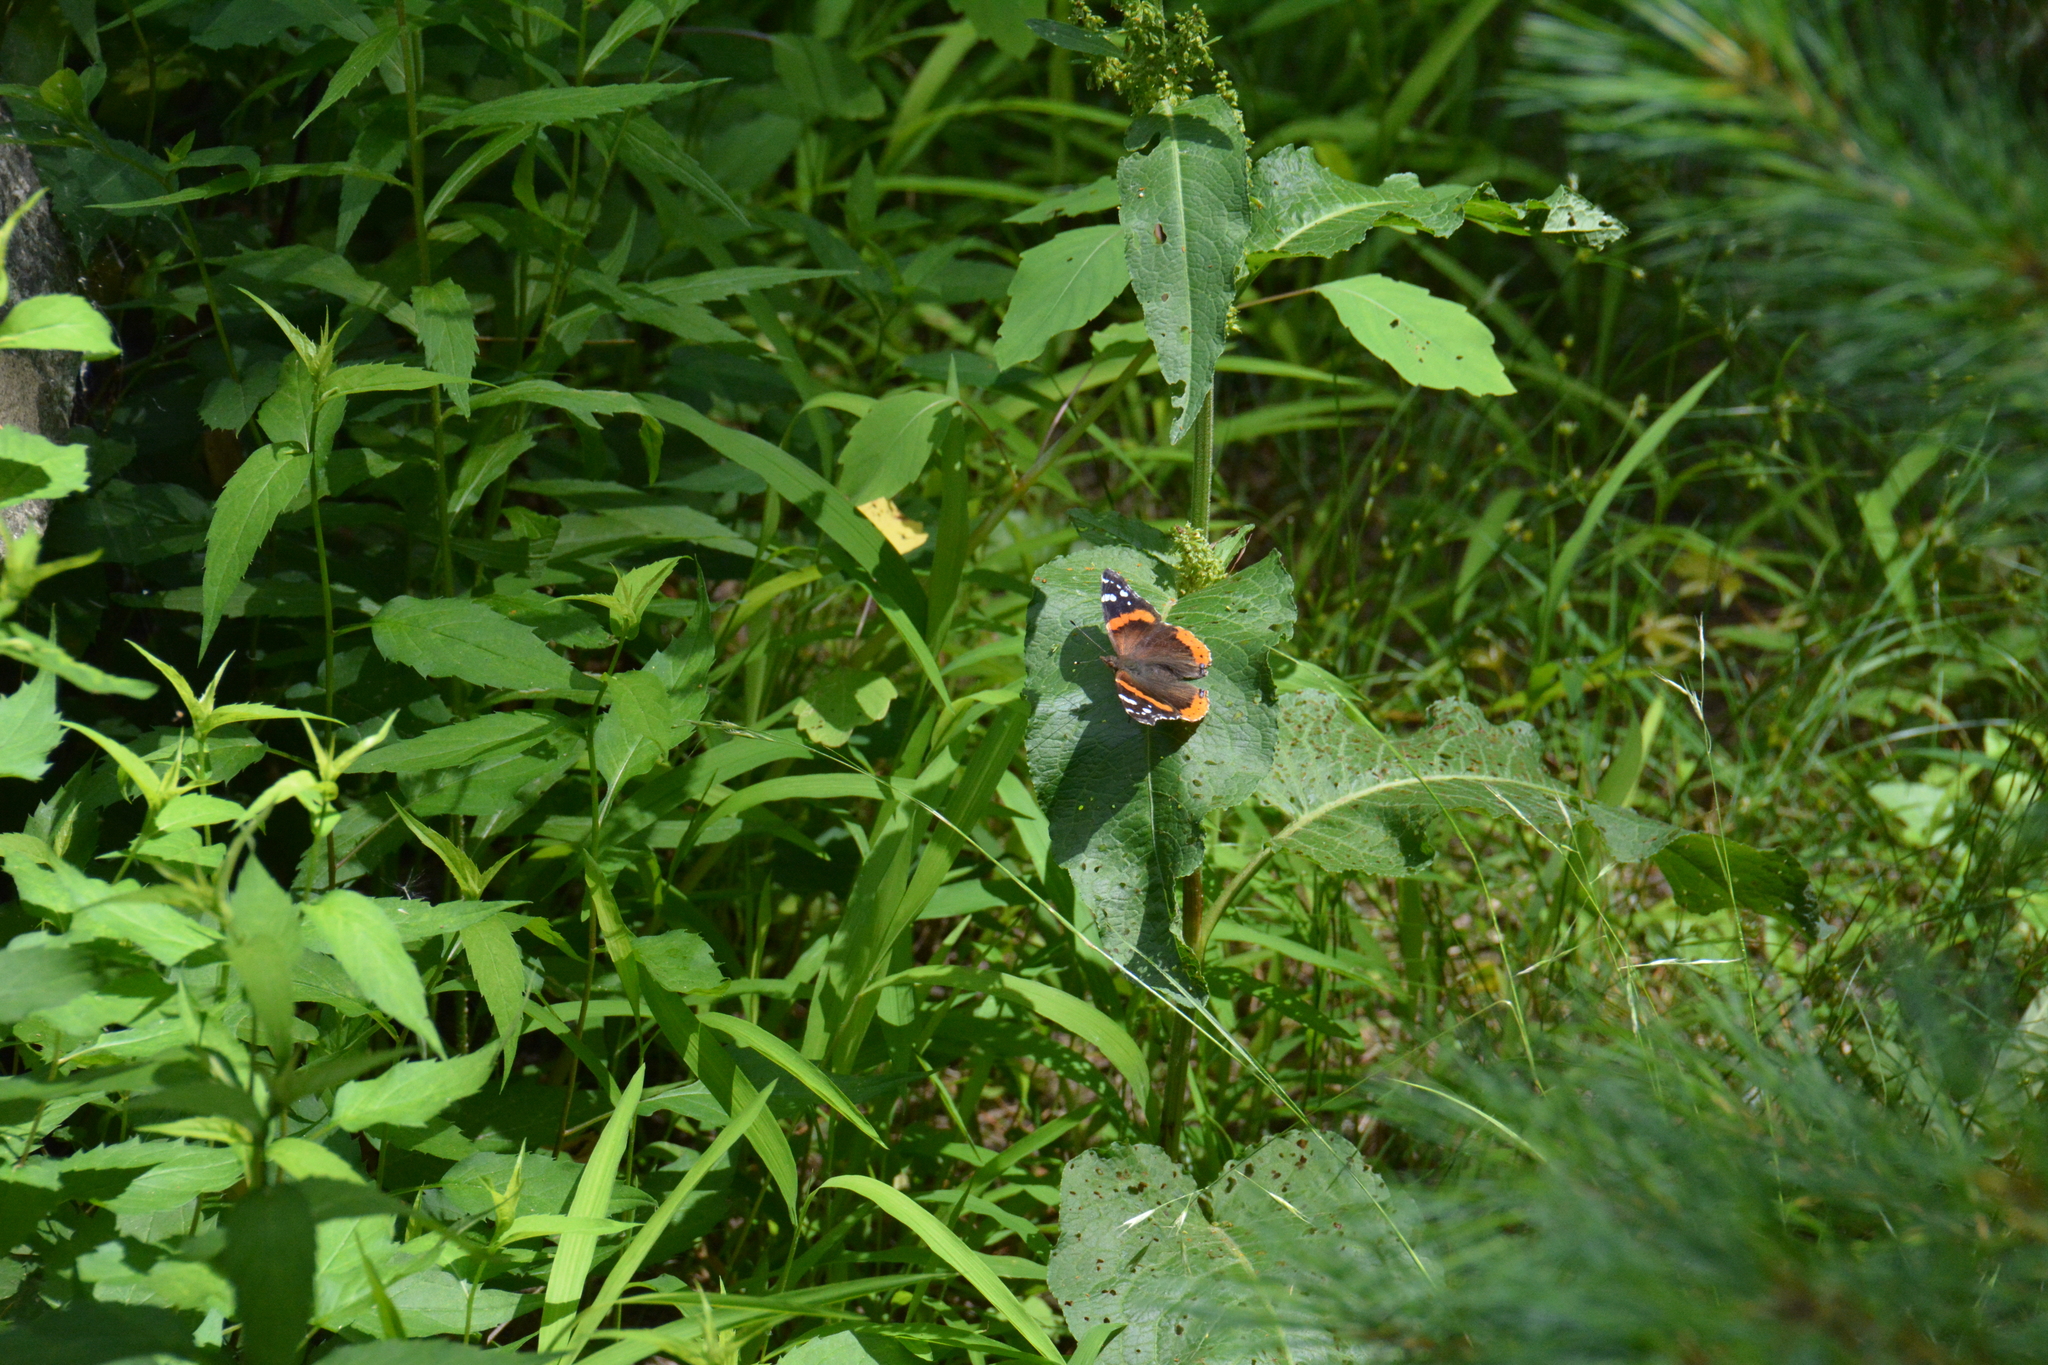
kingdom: Animalia
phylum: Arthropoda
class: Insecta
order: Lepidoptera
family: Nymphalidae
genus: Vanessa
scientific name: Vanessa atalanta
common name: Red admiral
